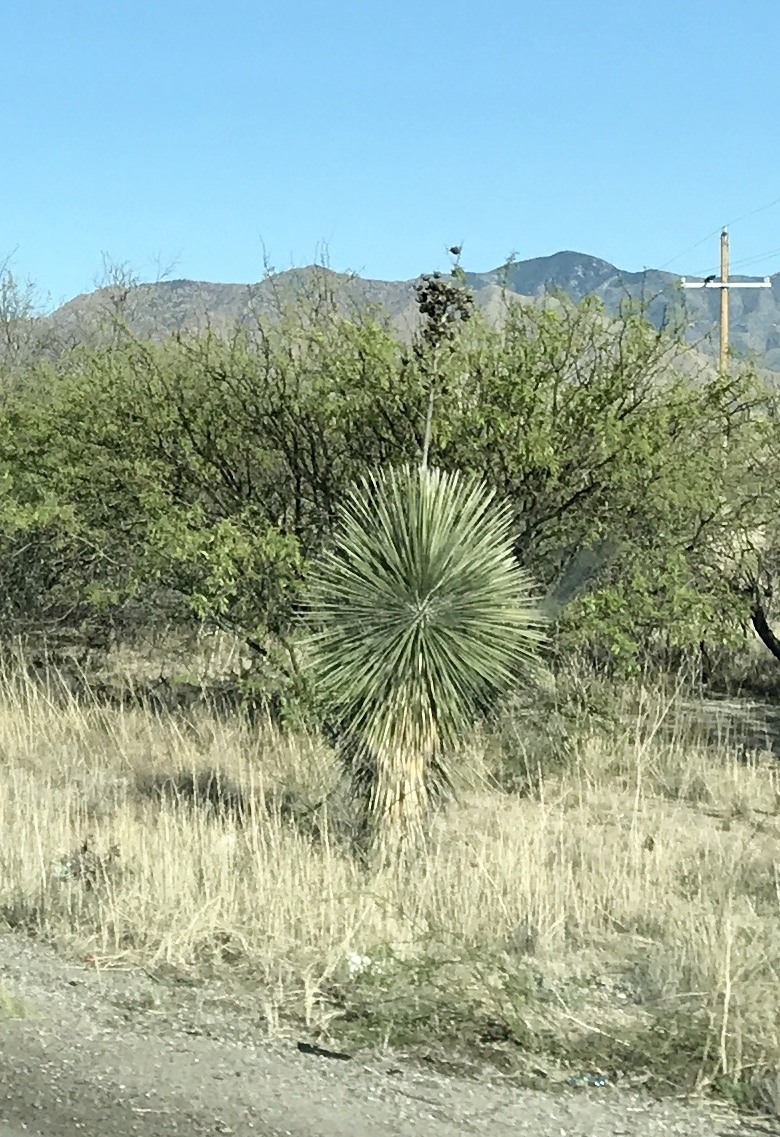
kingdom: Plantae
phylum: Tracheophyta
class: Liliopsida
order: Asparagales
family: Asparagaceae
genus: Yucca
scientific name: Yucca elata
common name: Palmella
